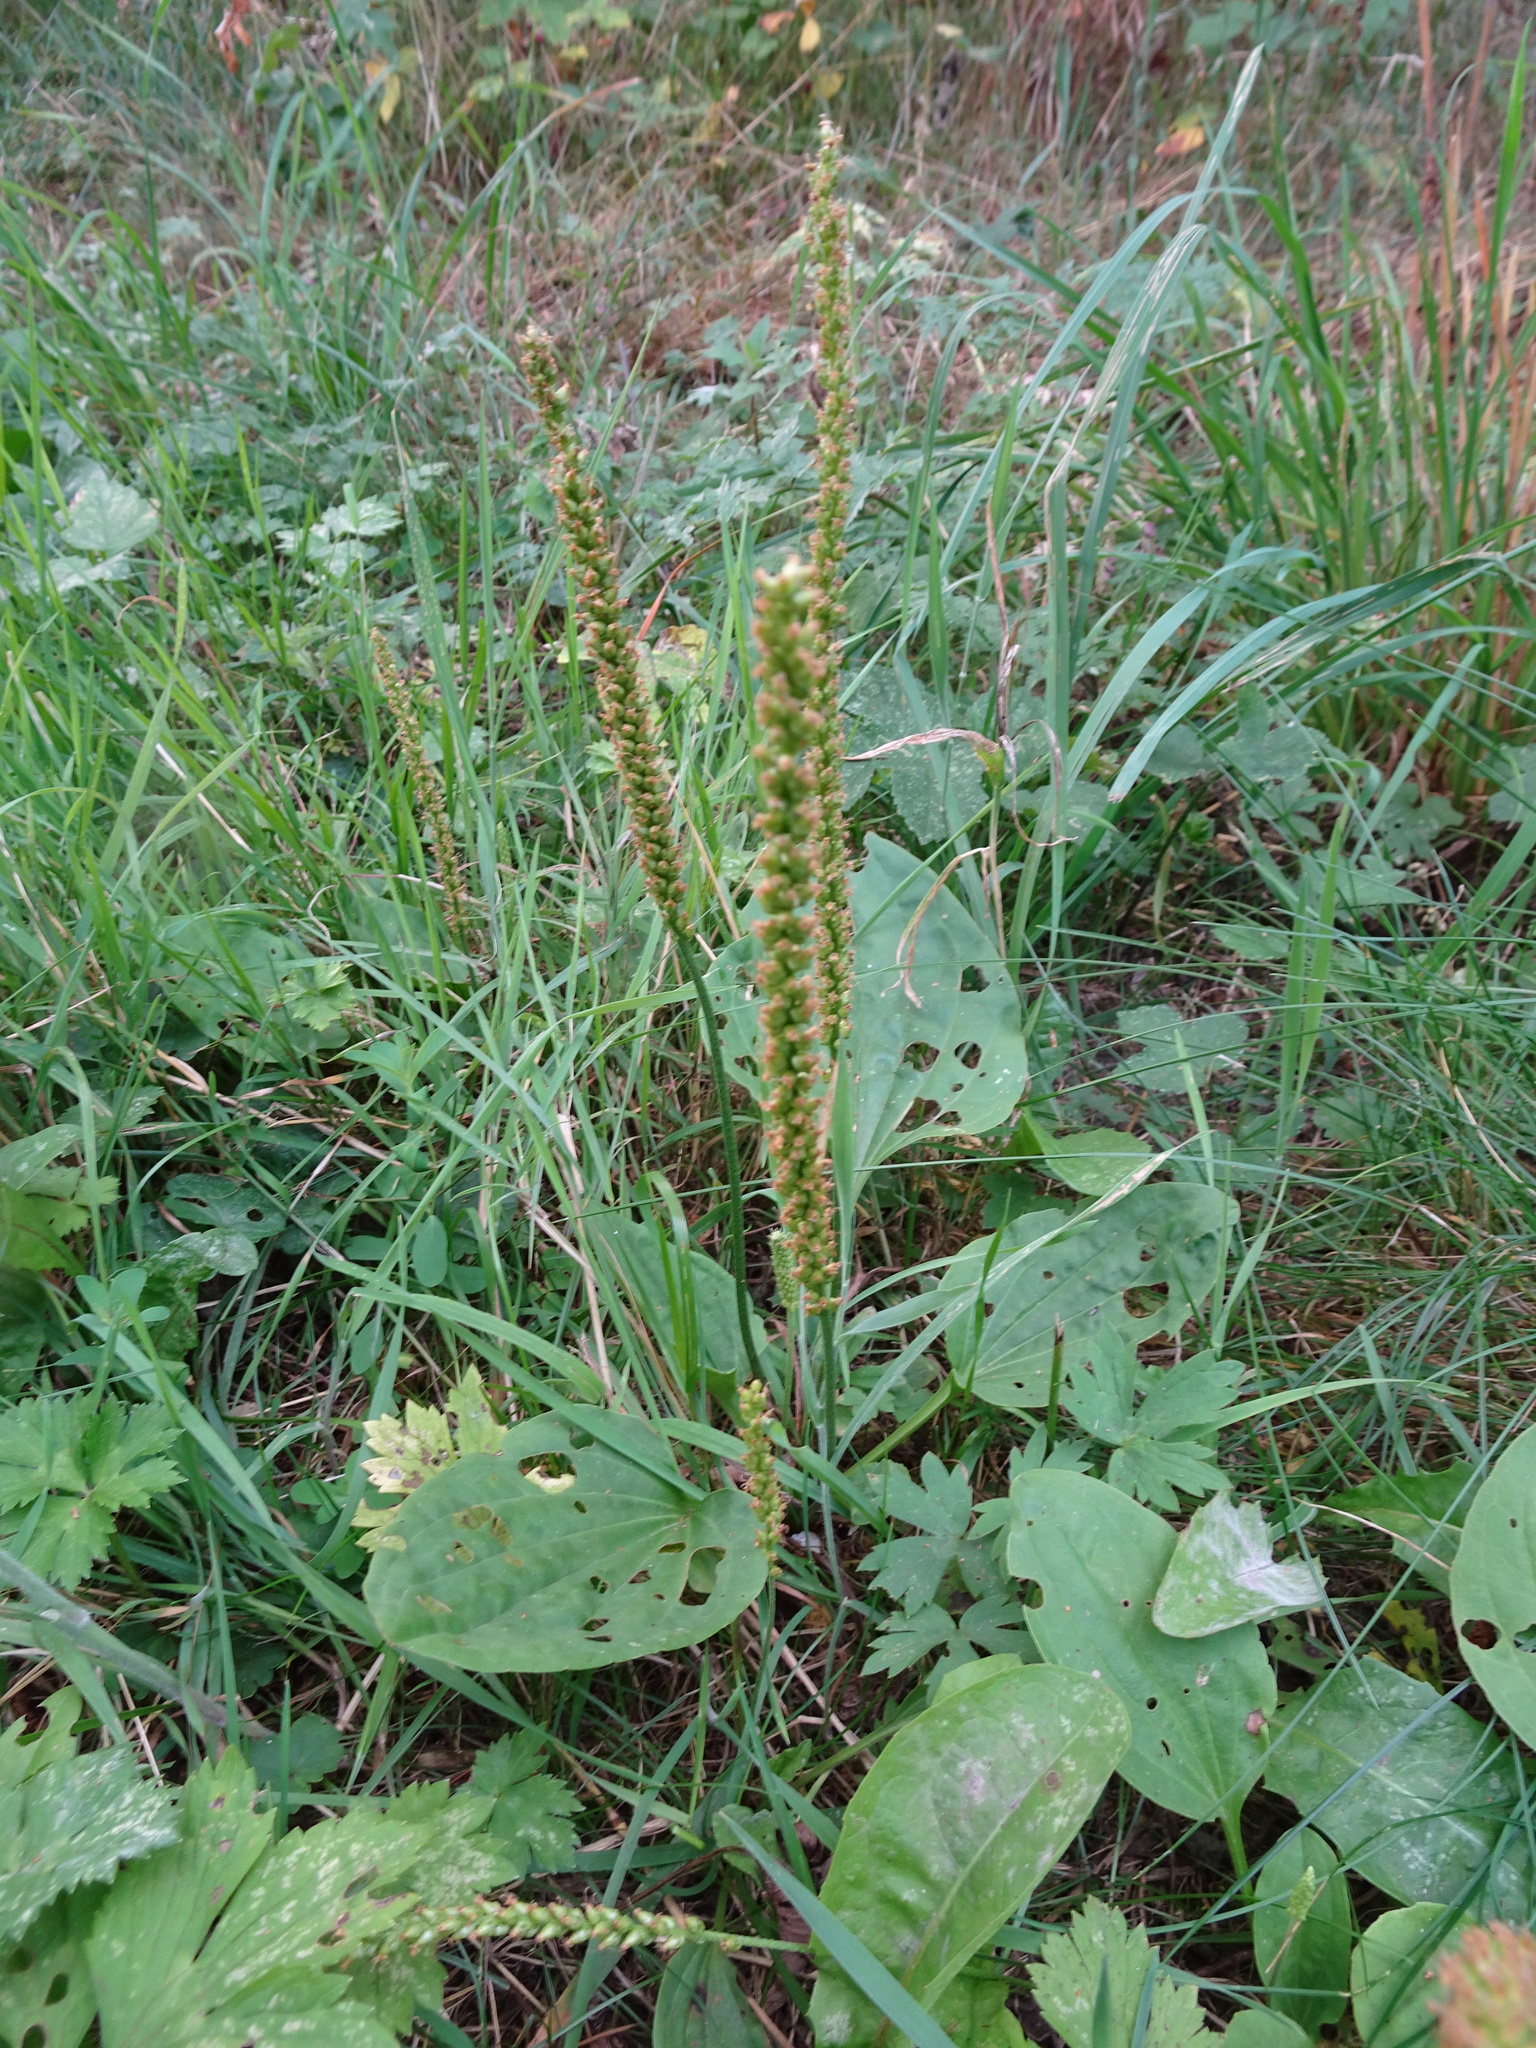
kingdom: Plantae
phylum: Tracheophyta
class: Magnoliopsida
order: Lamiales
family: Plantaginaceae
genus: Plantago
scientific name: Plantago major
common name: Common plantain
